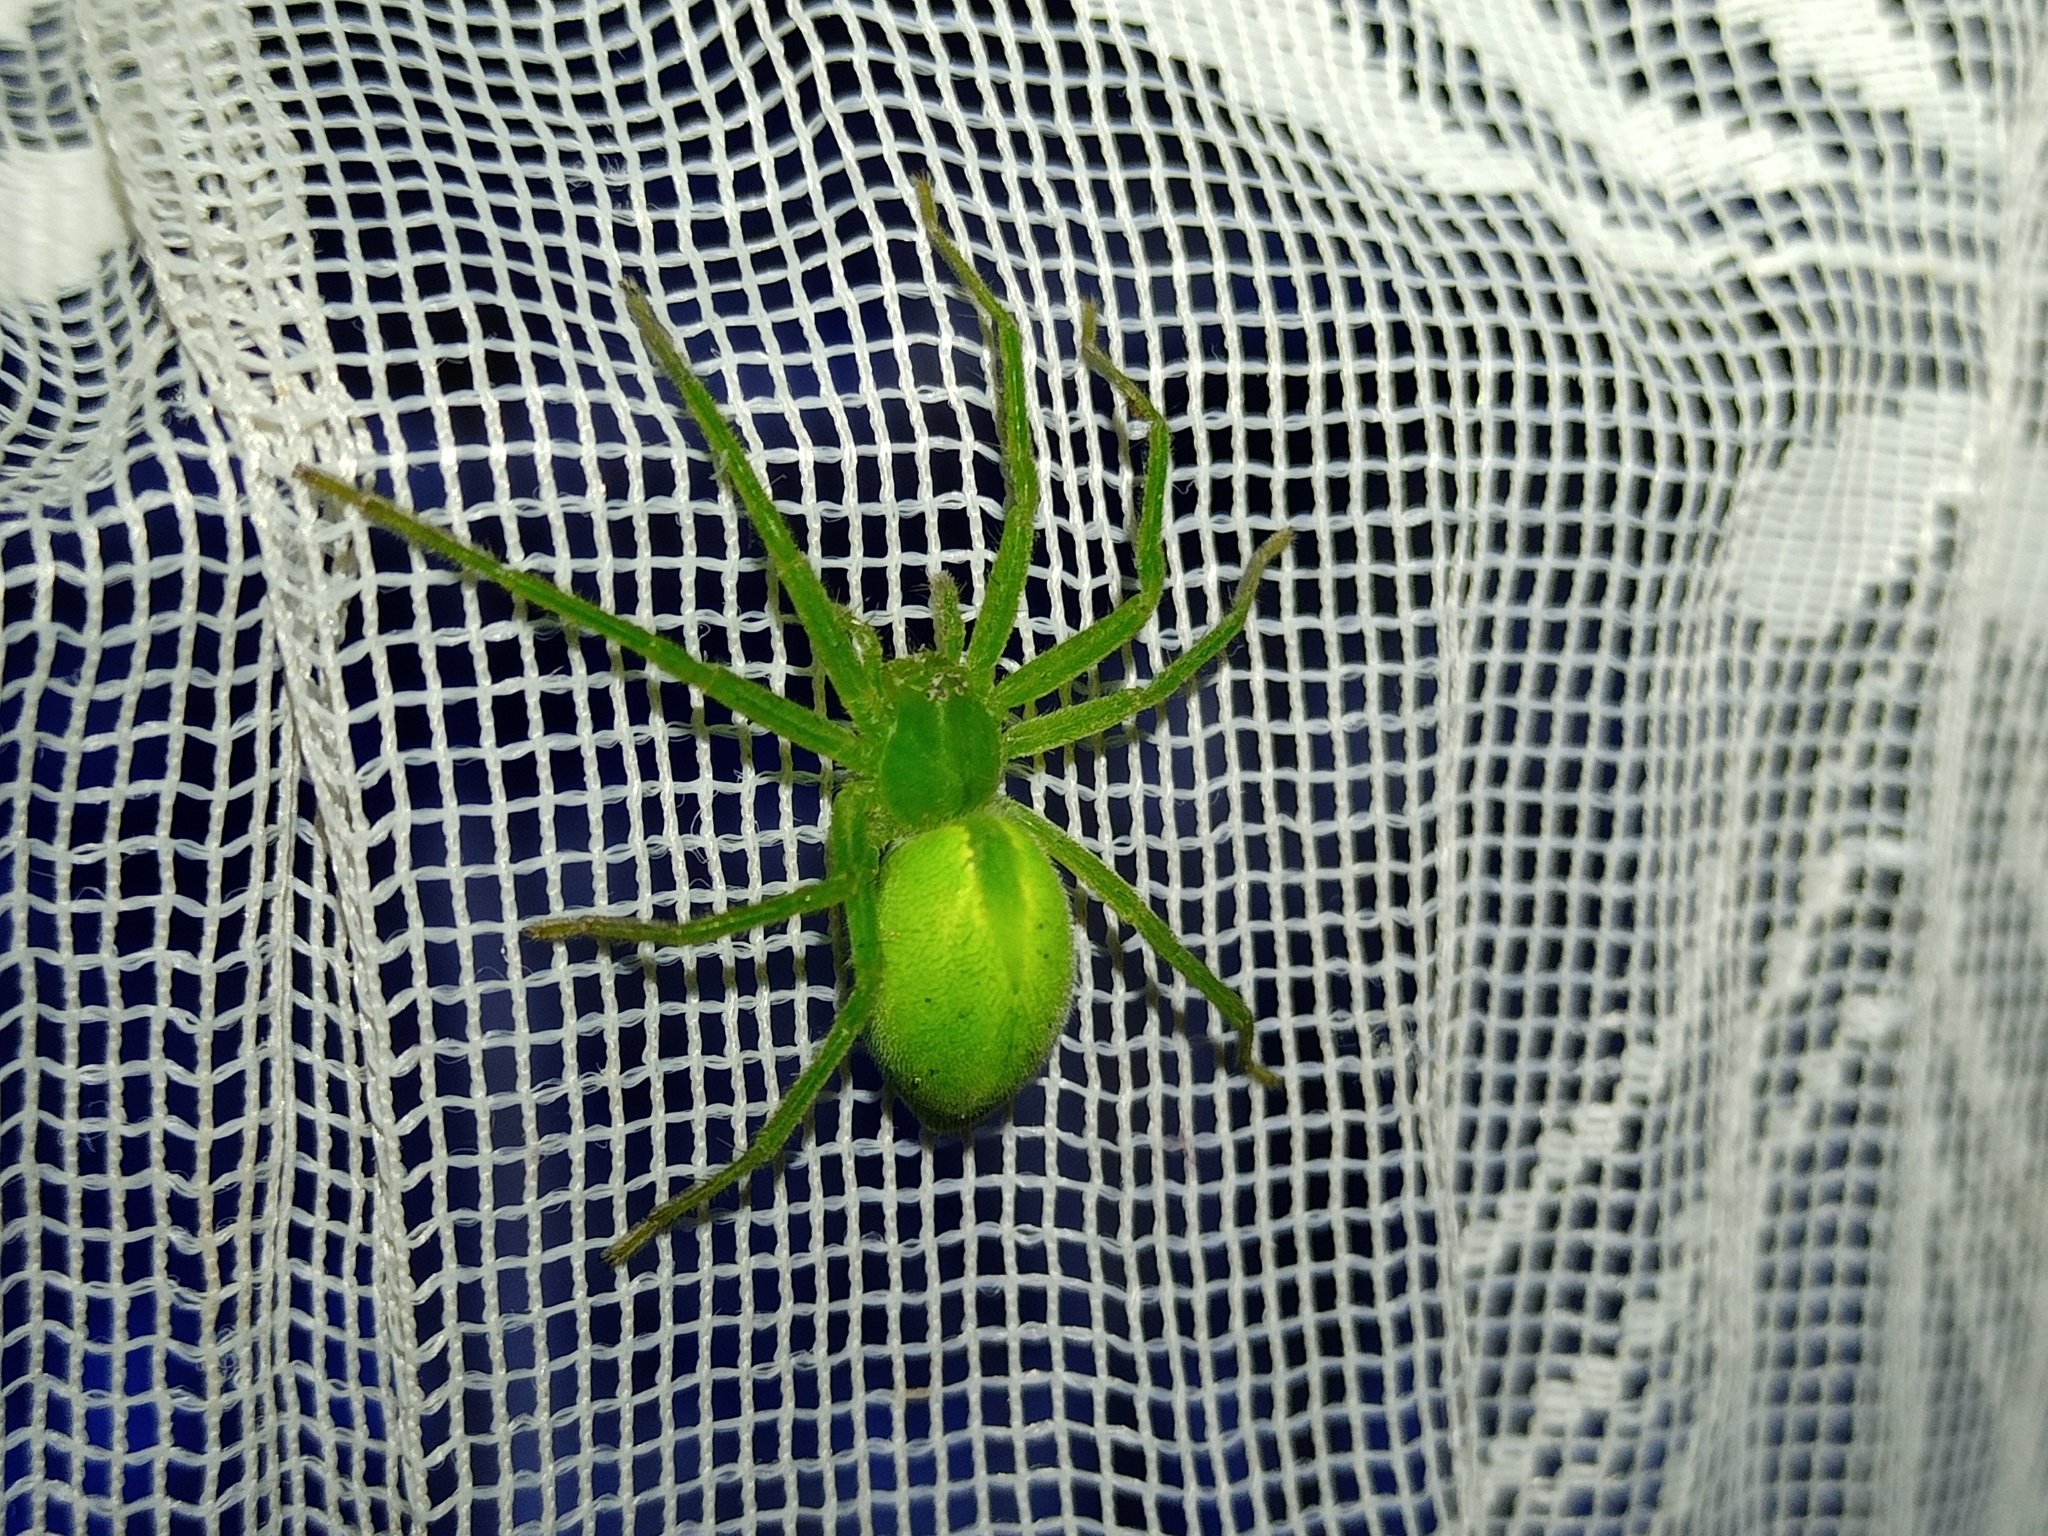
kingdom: Animalia
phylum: Arthropoda
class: Arachnida
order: Araneae
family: Sparassidae
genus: Micrommata
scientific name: Micrommata virescens
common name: Green spider
